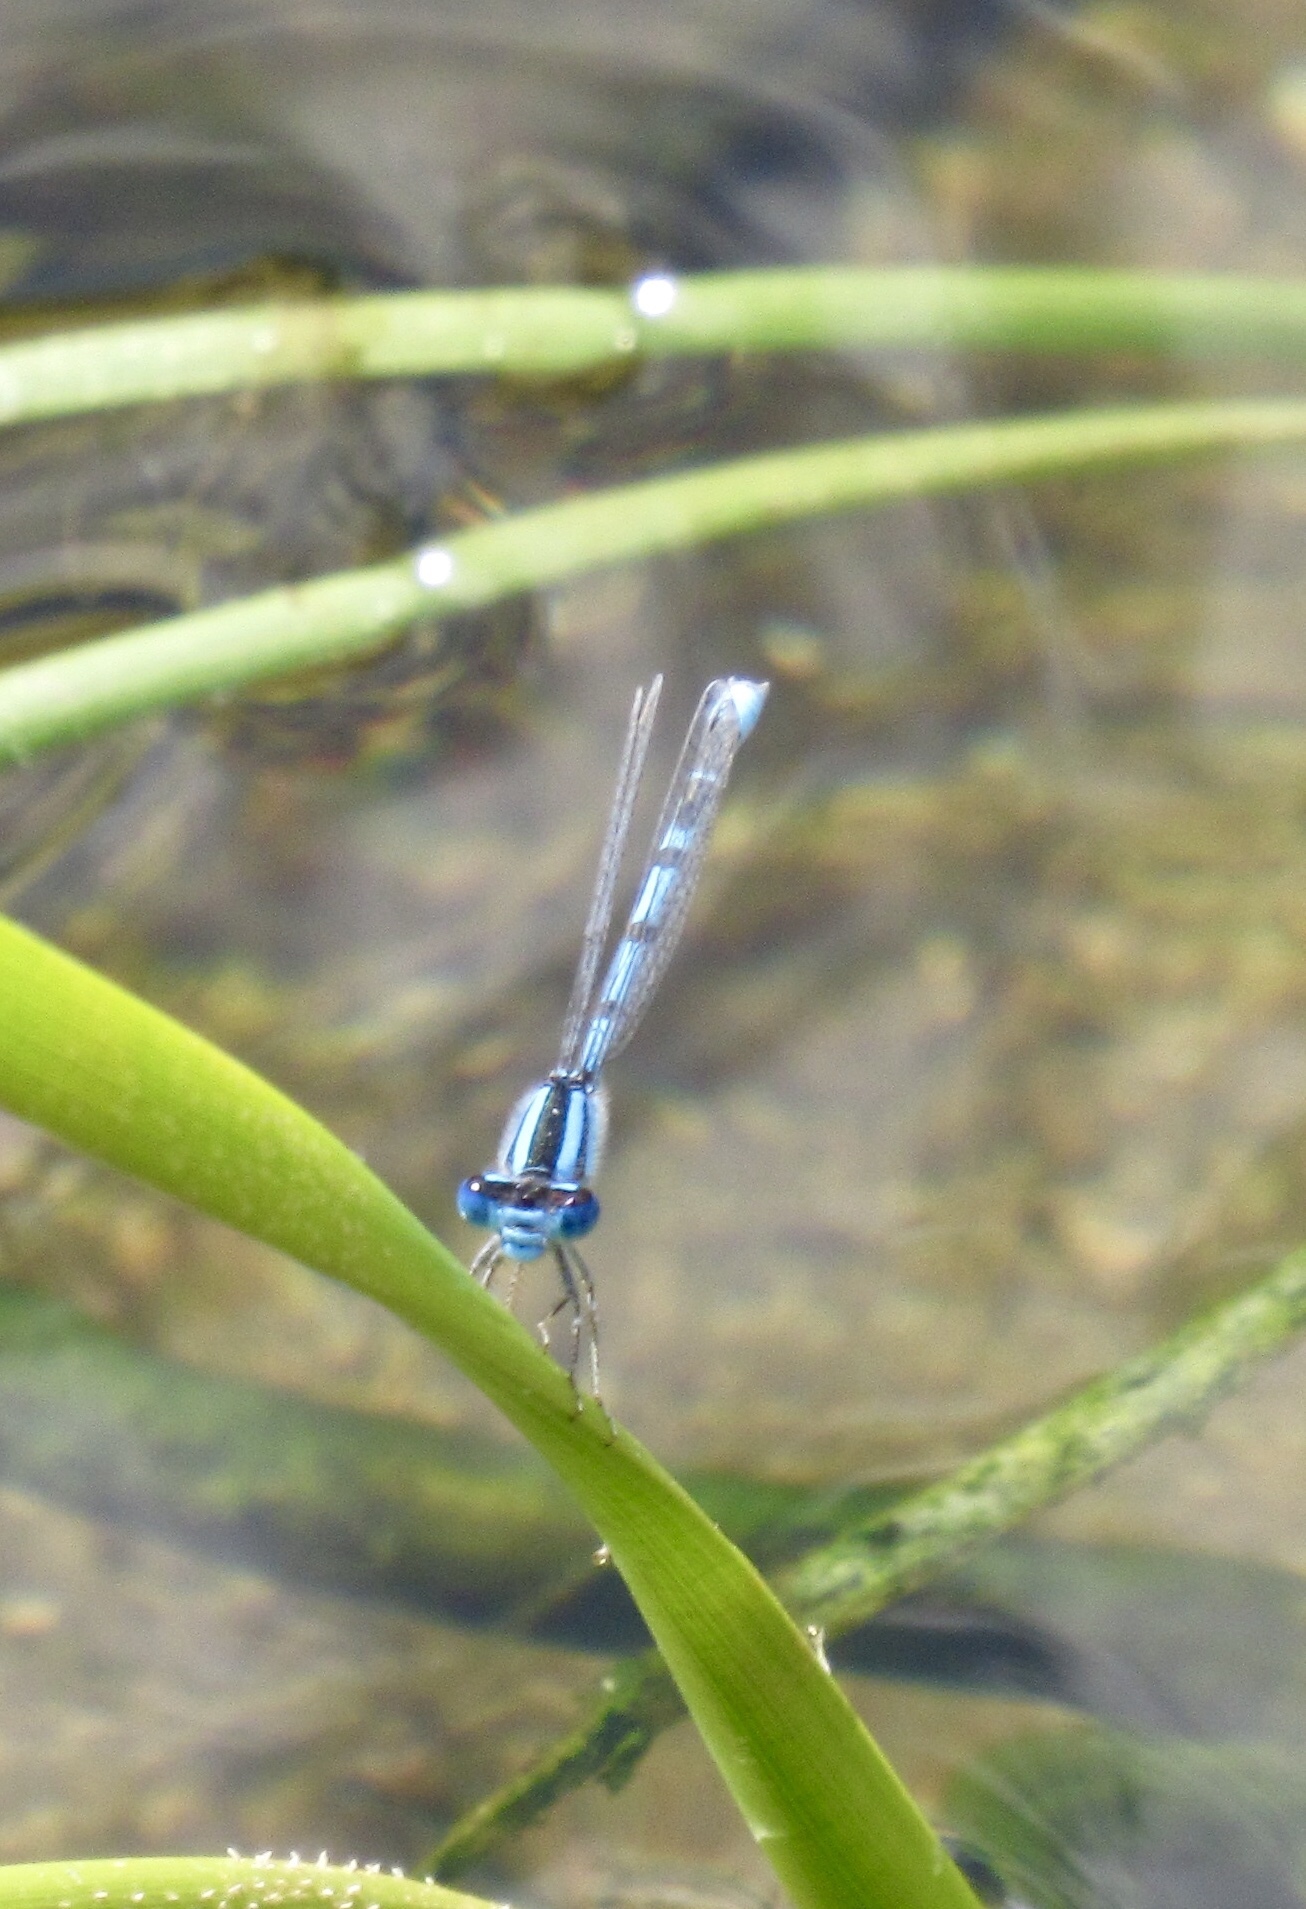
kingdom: Animalia
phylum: Arthropoda
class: Insecta
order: Odonata
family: Coenagrionidae
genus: Enallagma
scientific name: Enallagma civile
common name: Damselfly
